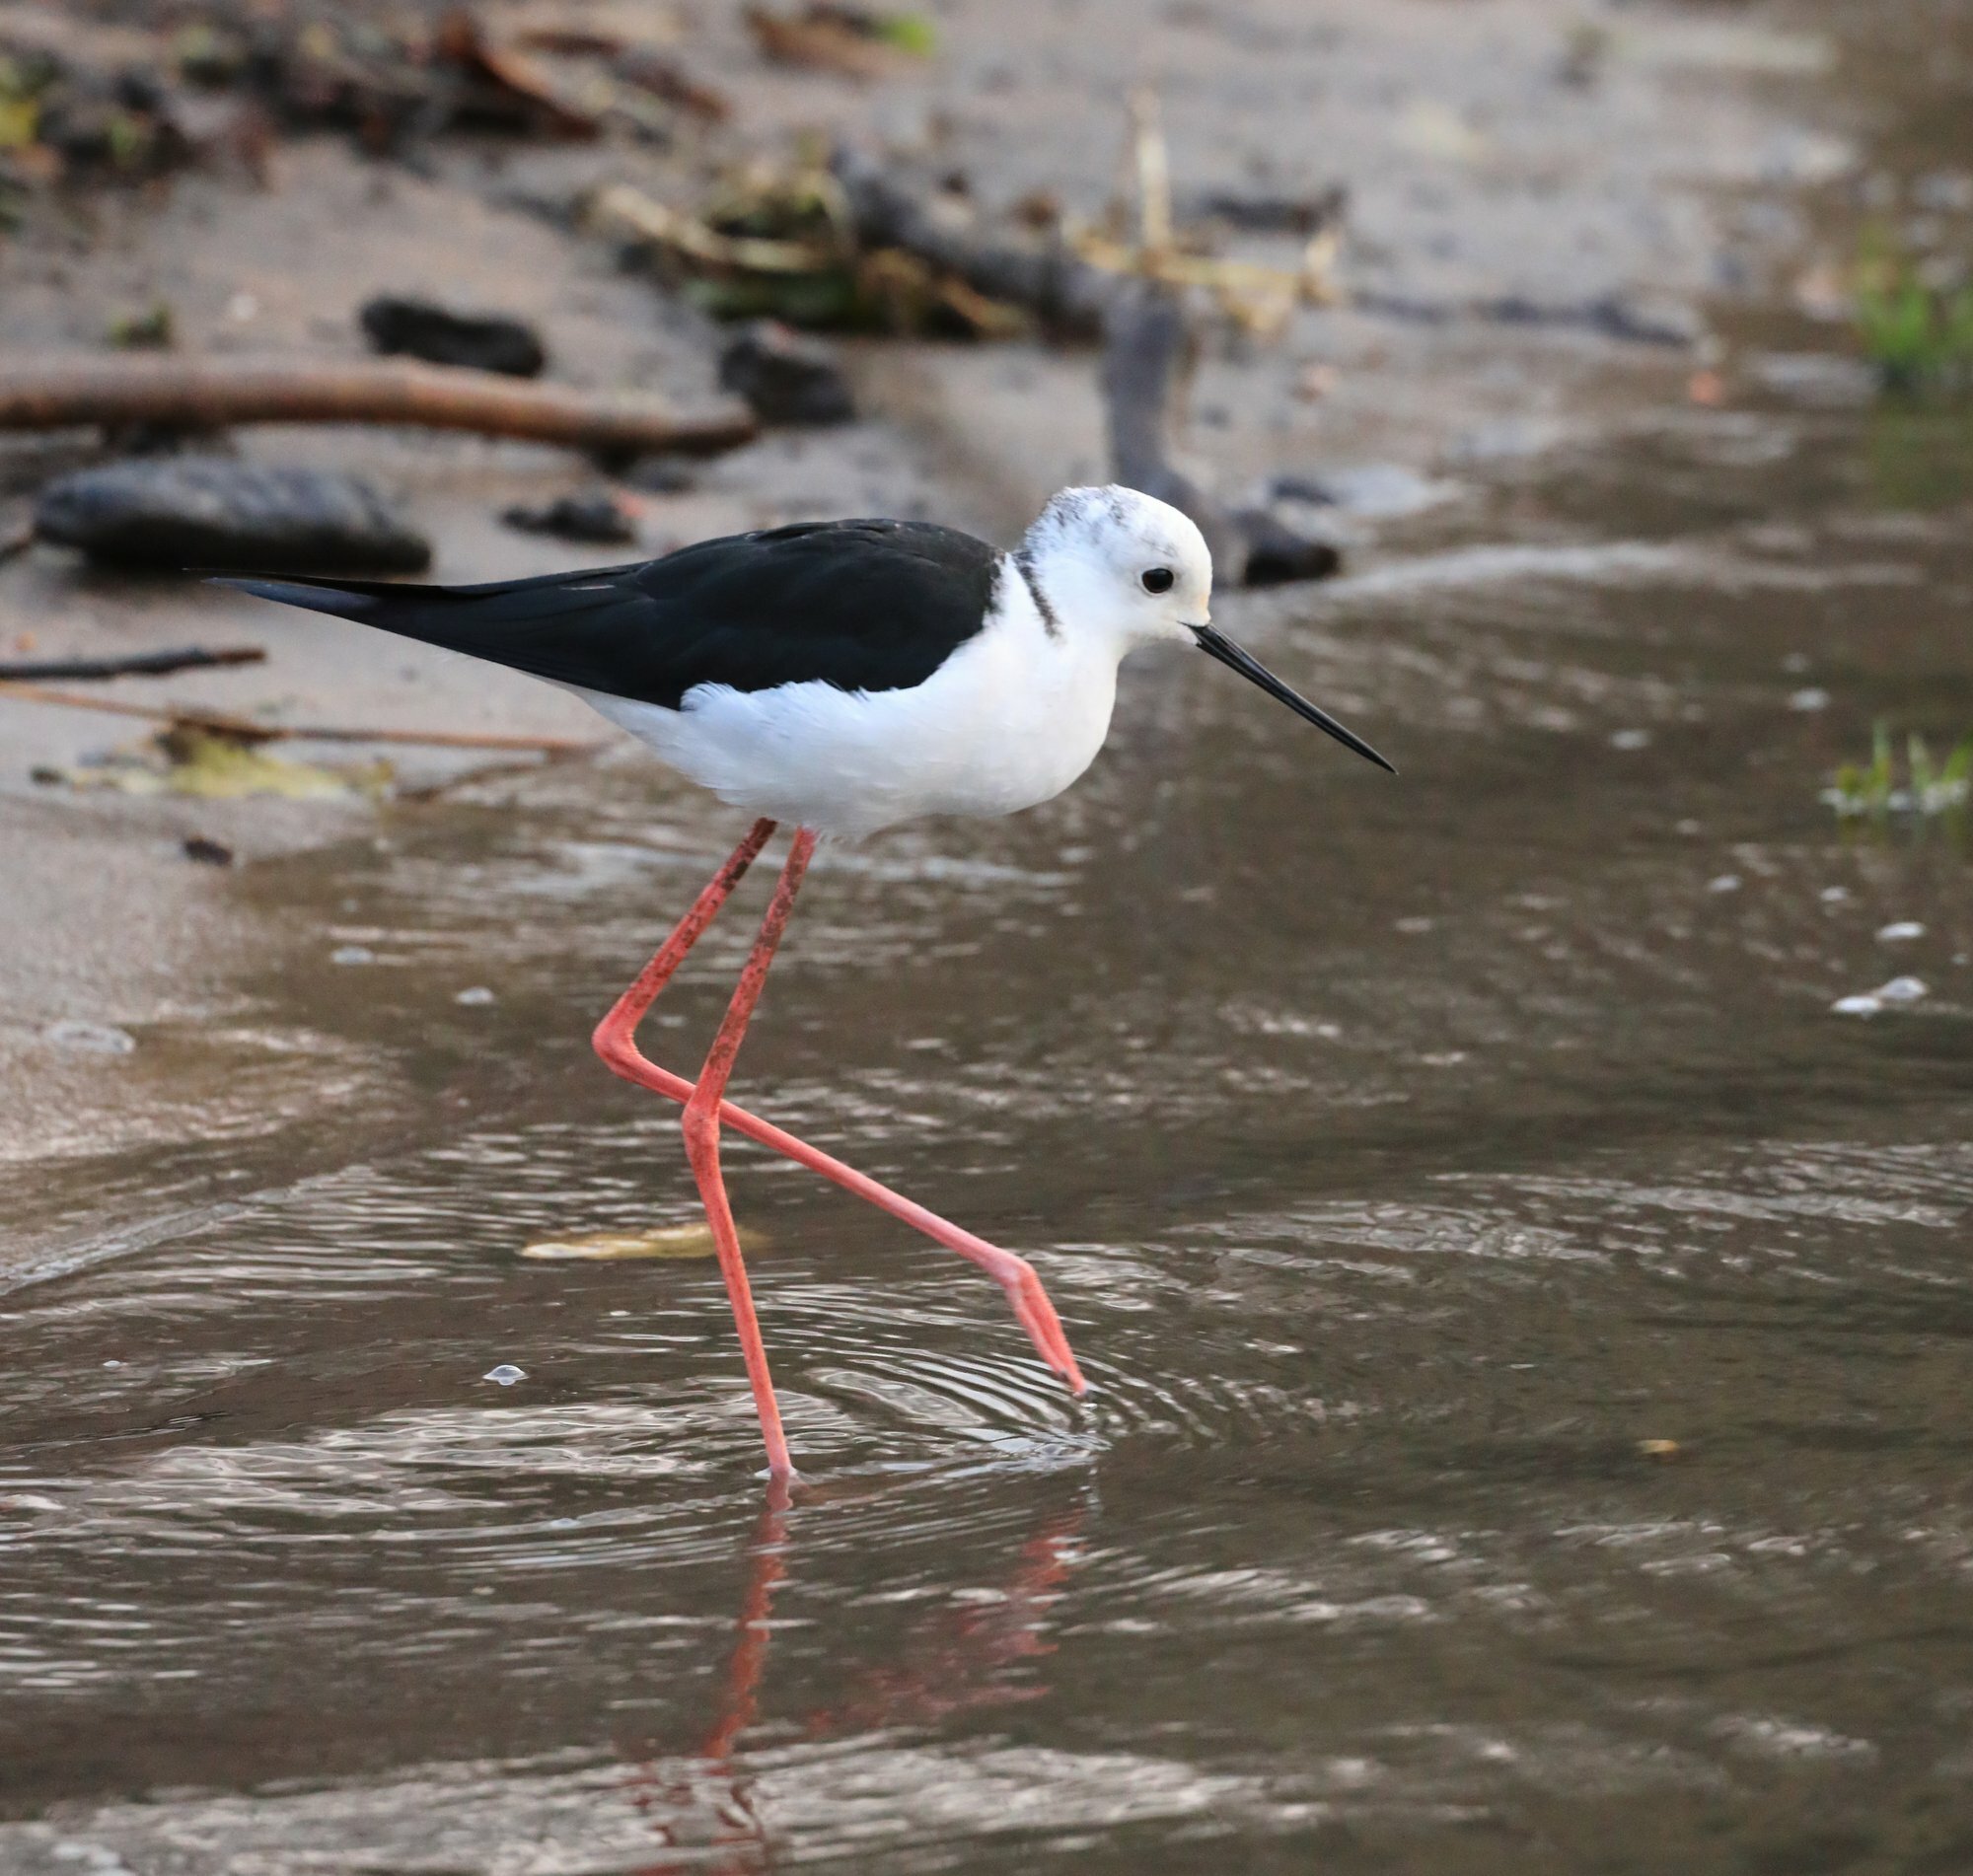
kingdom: Animalia
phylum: Chordata
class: Aves
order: Charadriiformes
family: Recurvirostridae
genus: Himantopus
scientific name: Himantopus himantopus
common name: Black-winged stilt
